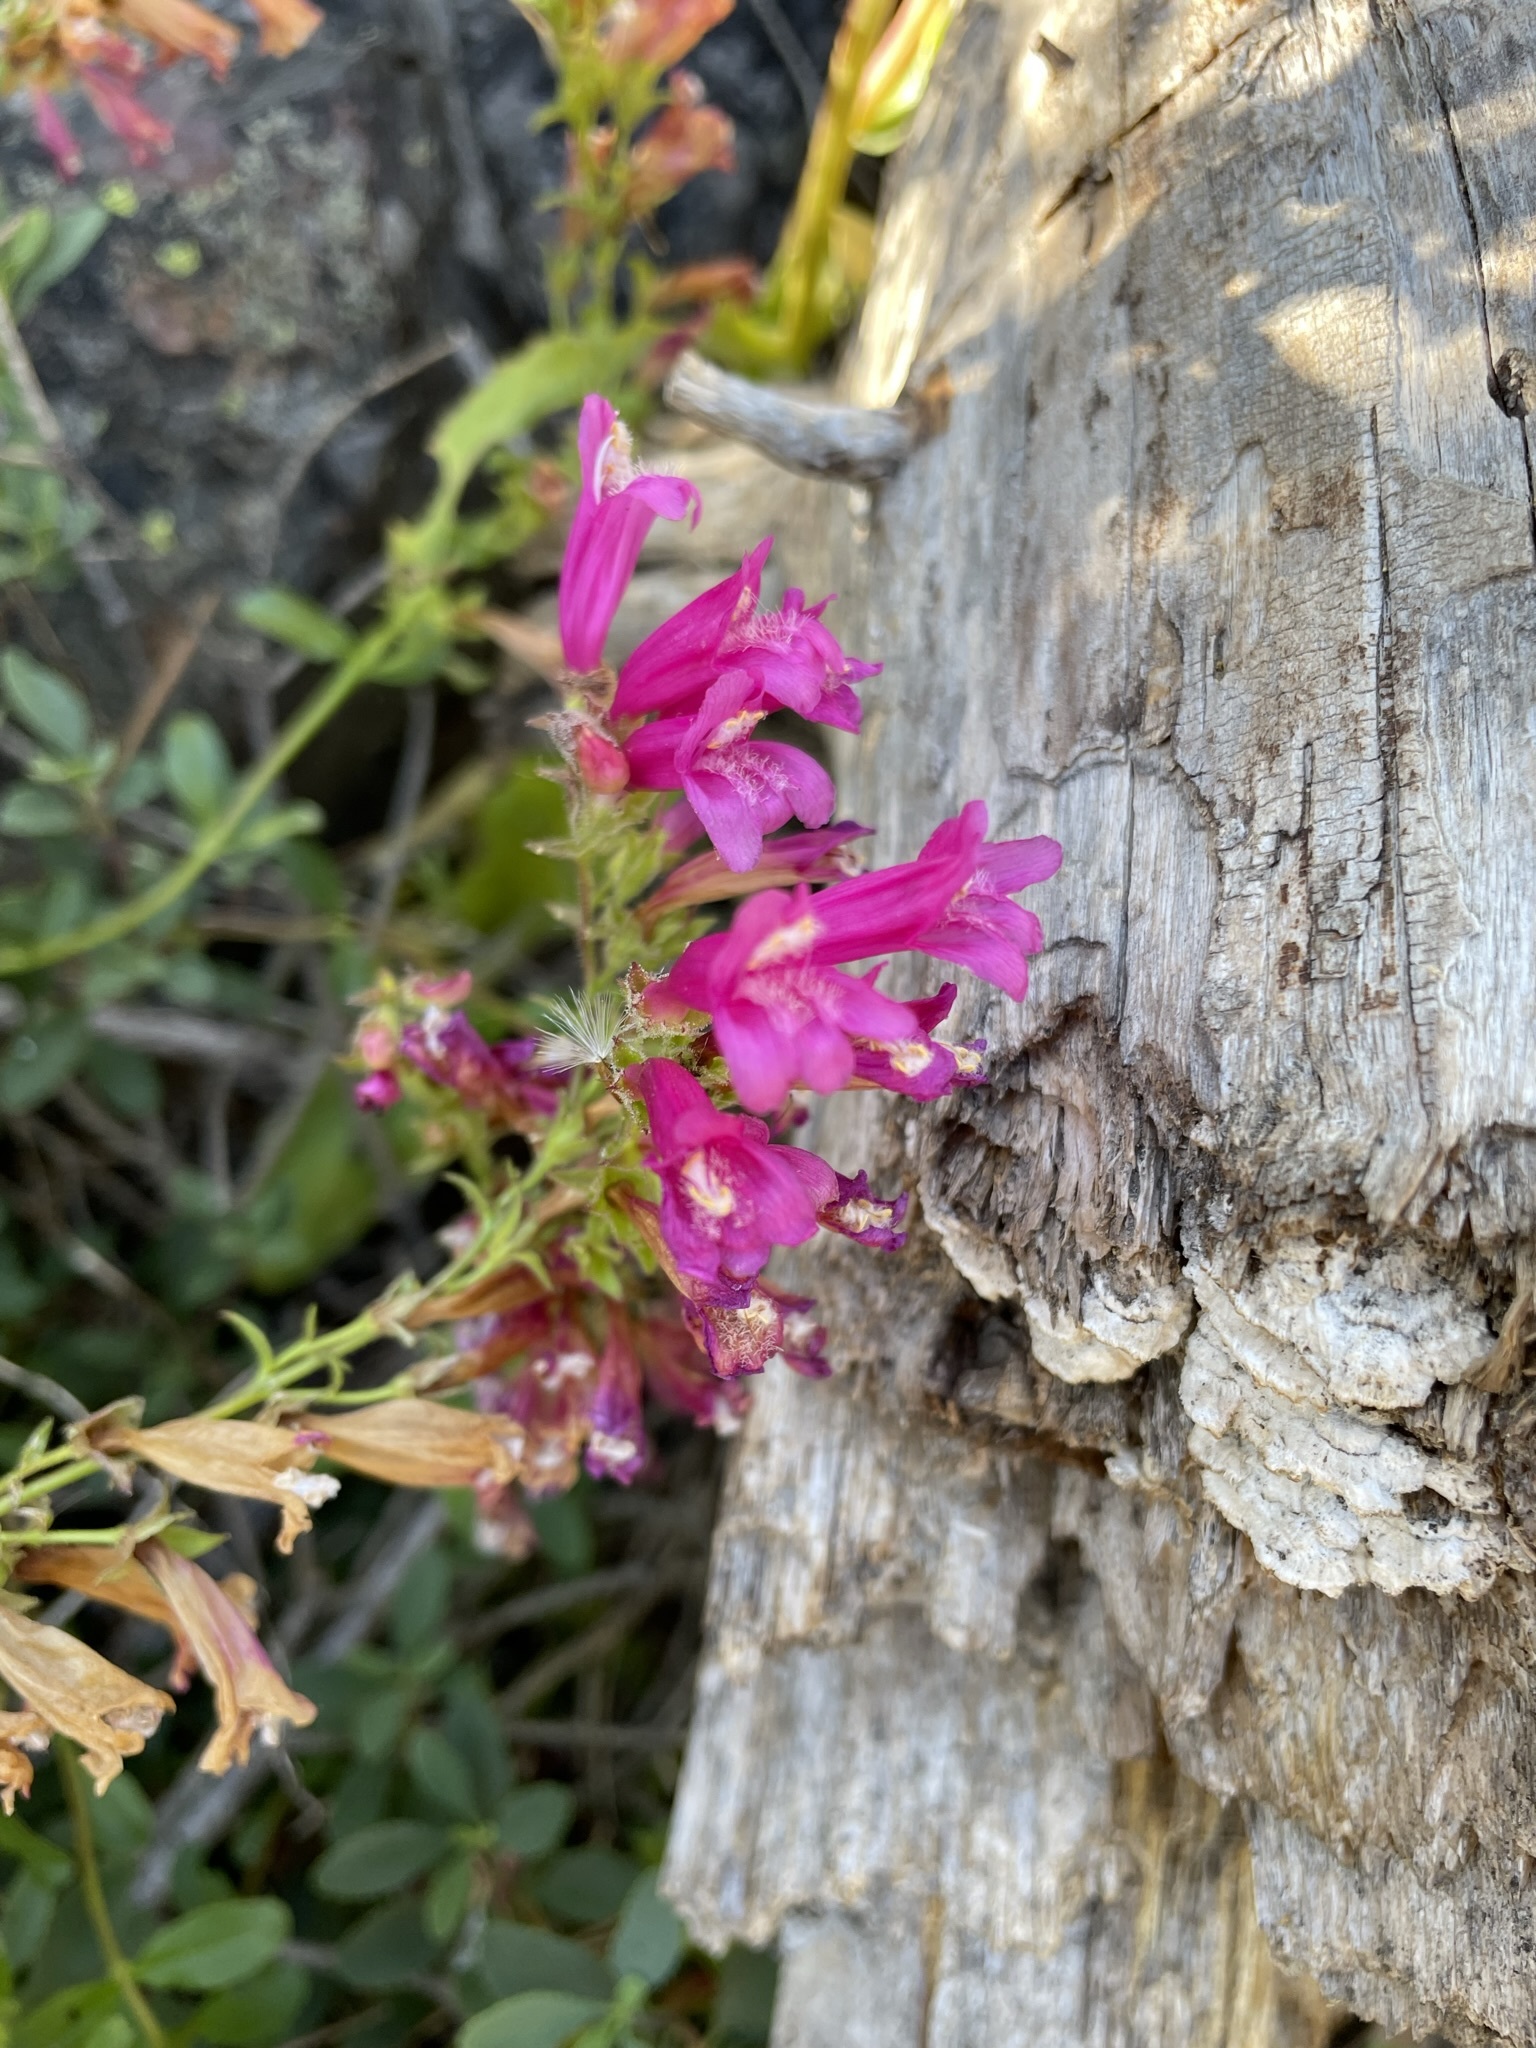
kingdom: Plantae
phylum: Tracheophyta
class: Magnoliopsida
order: Lamiales
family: Plantaginaceae
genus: Penstemon
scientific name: Penstemon newberryi
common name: Mountain-pride
